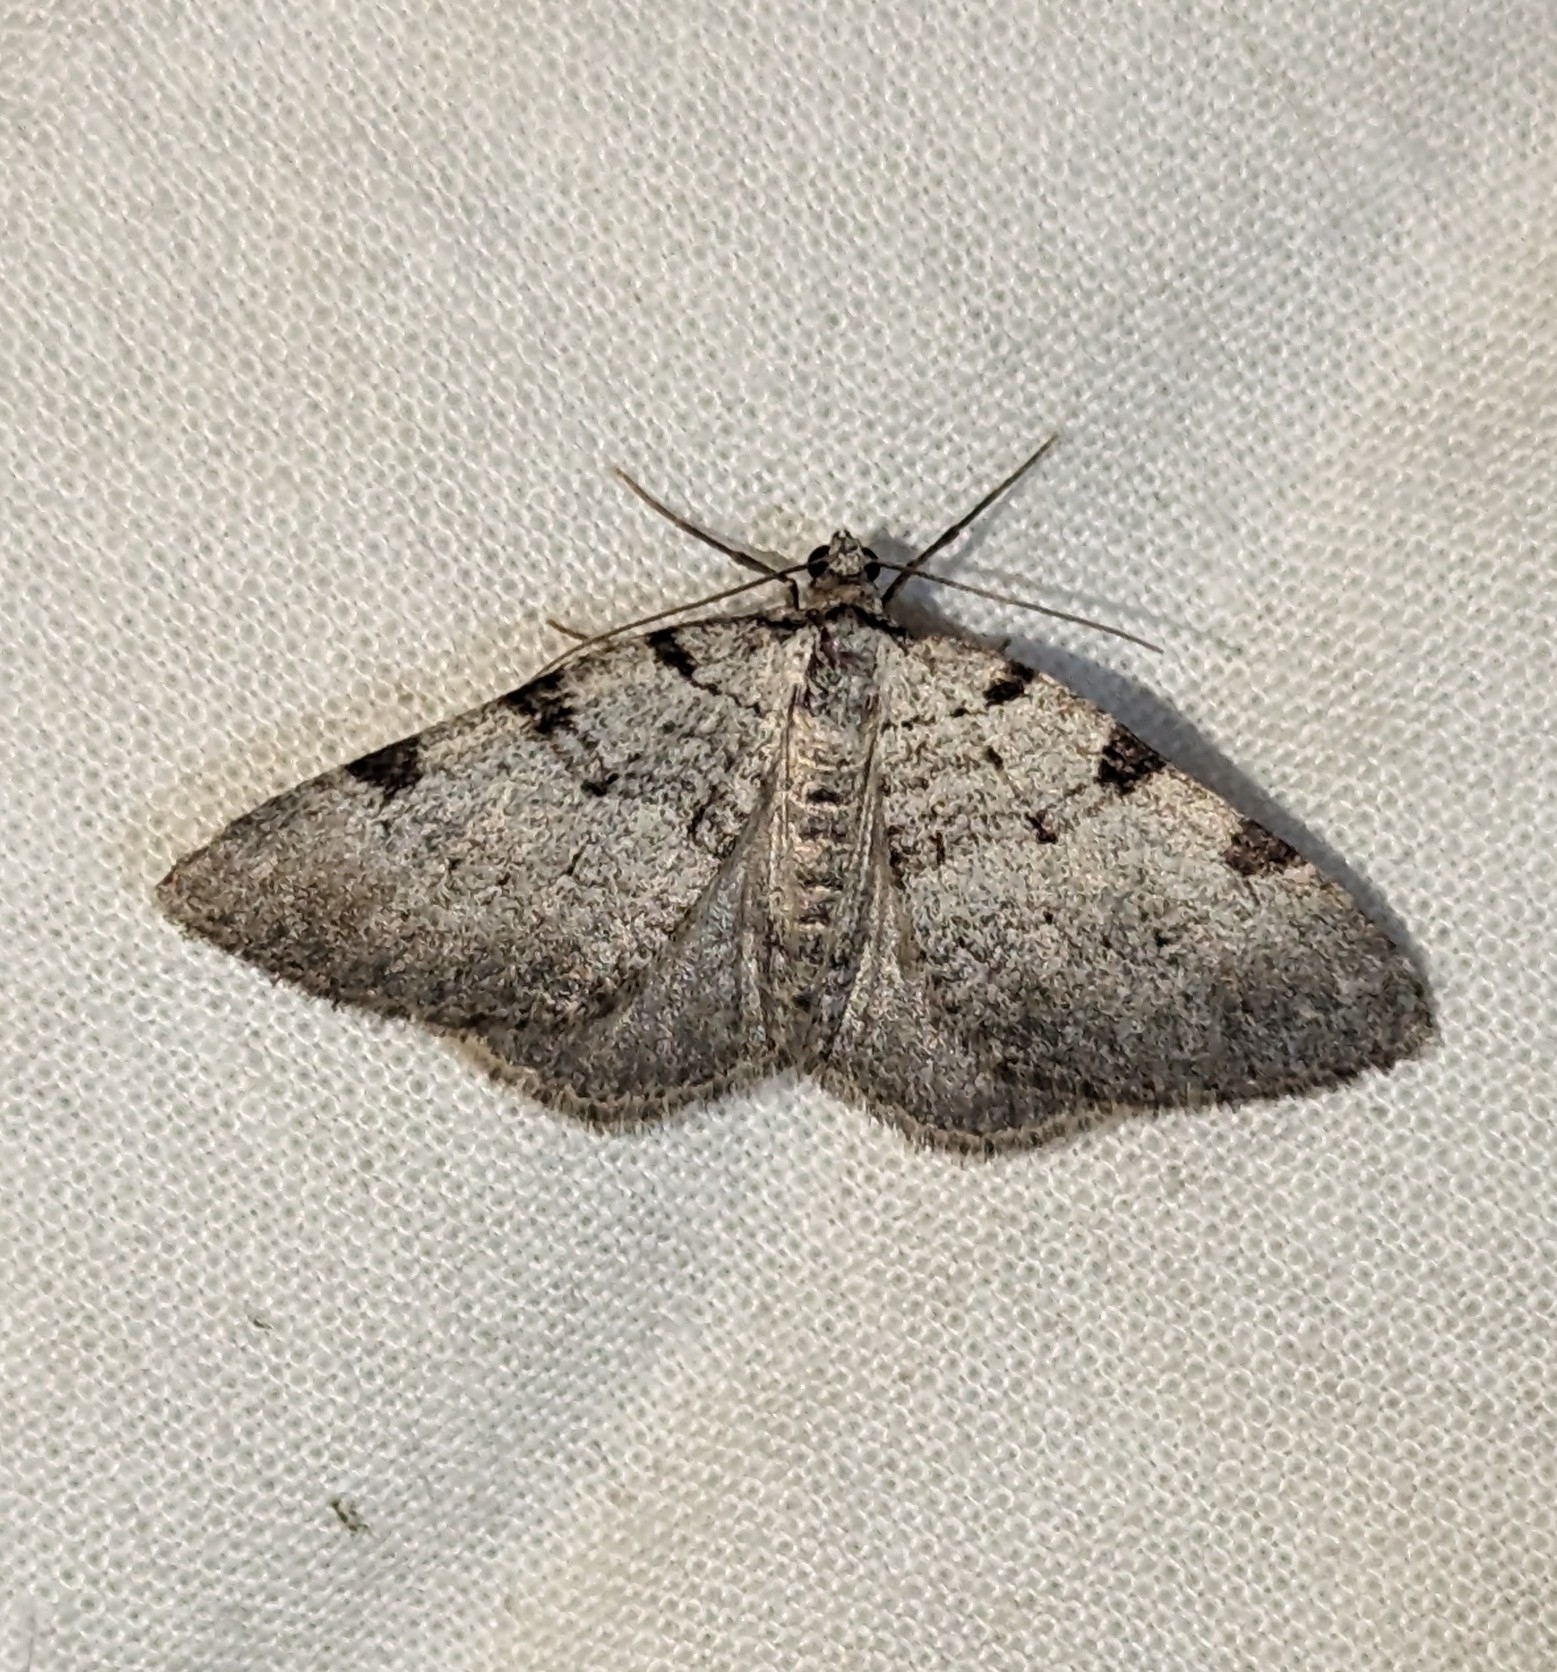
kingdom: Animalia
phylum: Arthropoda
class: Insecta
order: Lepidoptera
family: Geometridae
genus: Perizoma
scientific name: Perizoma costiguttata
